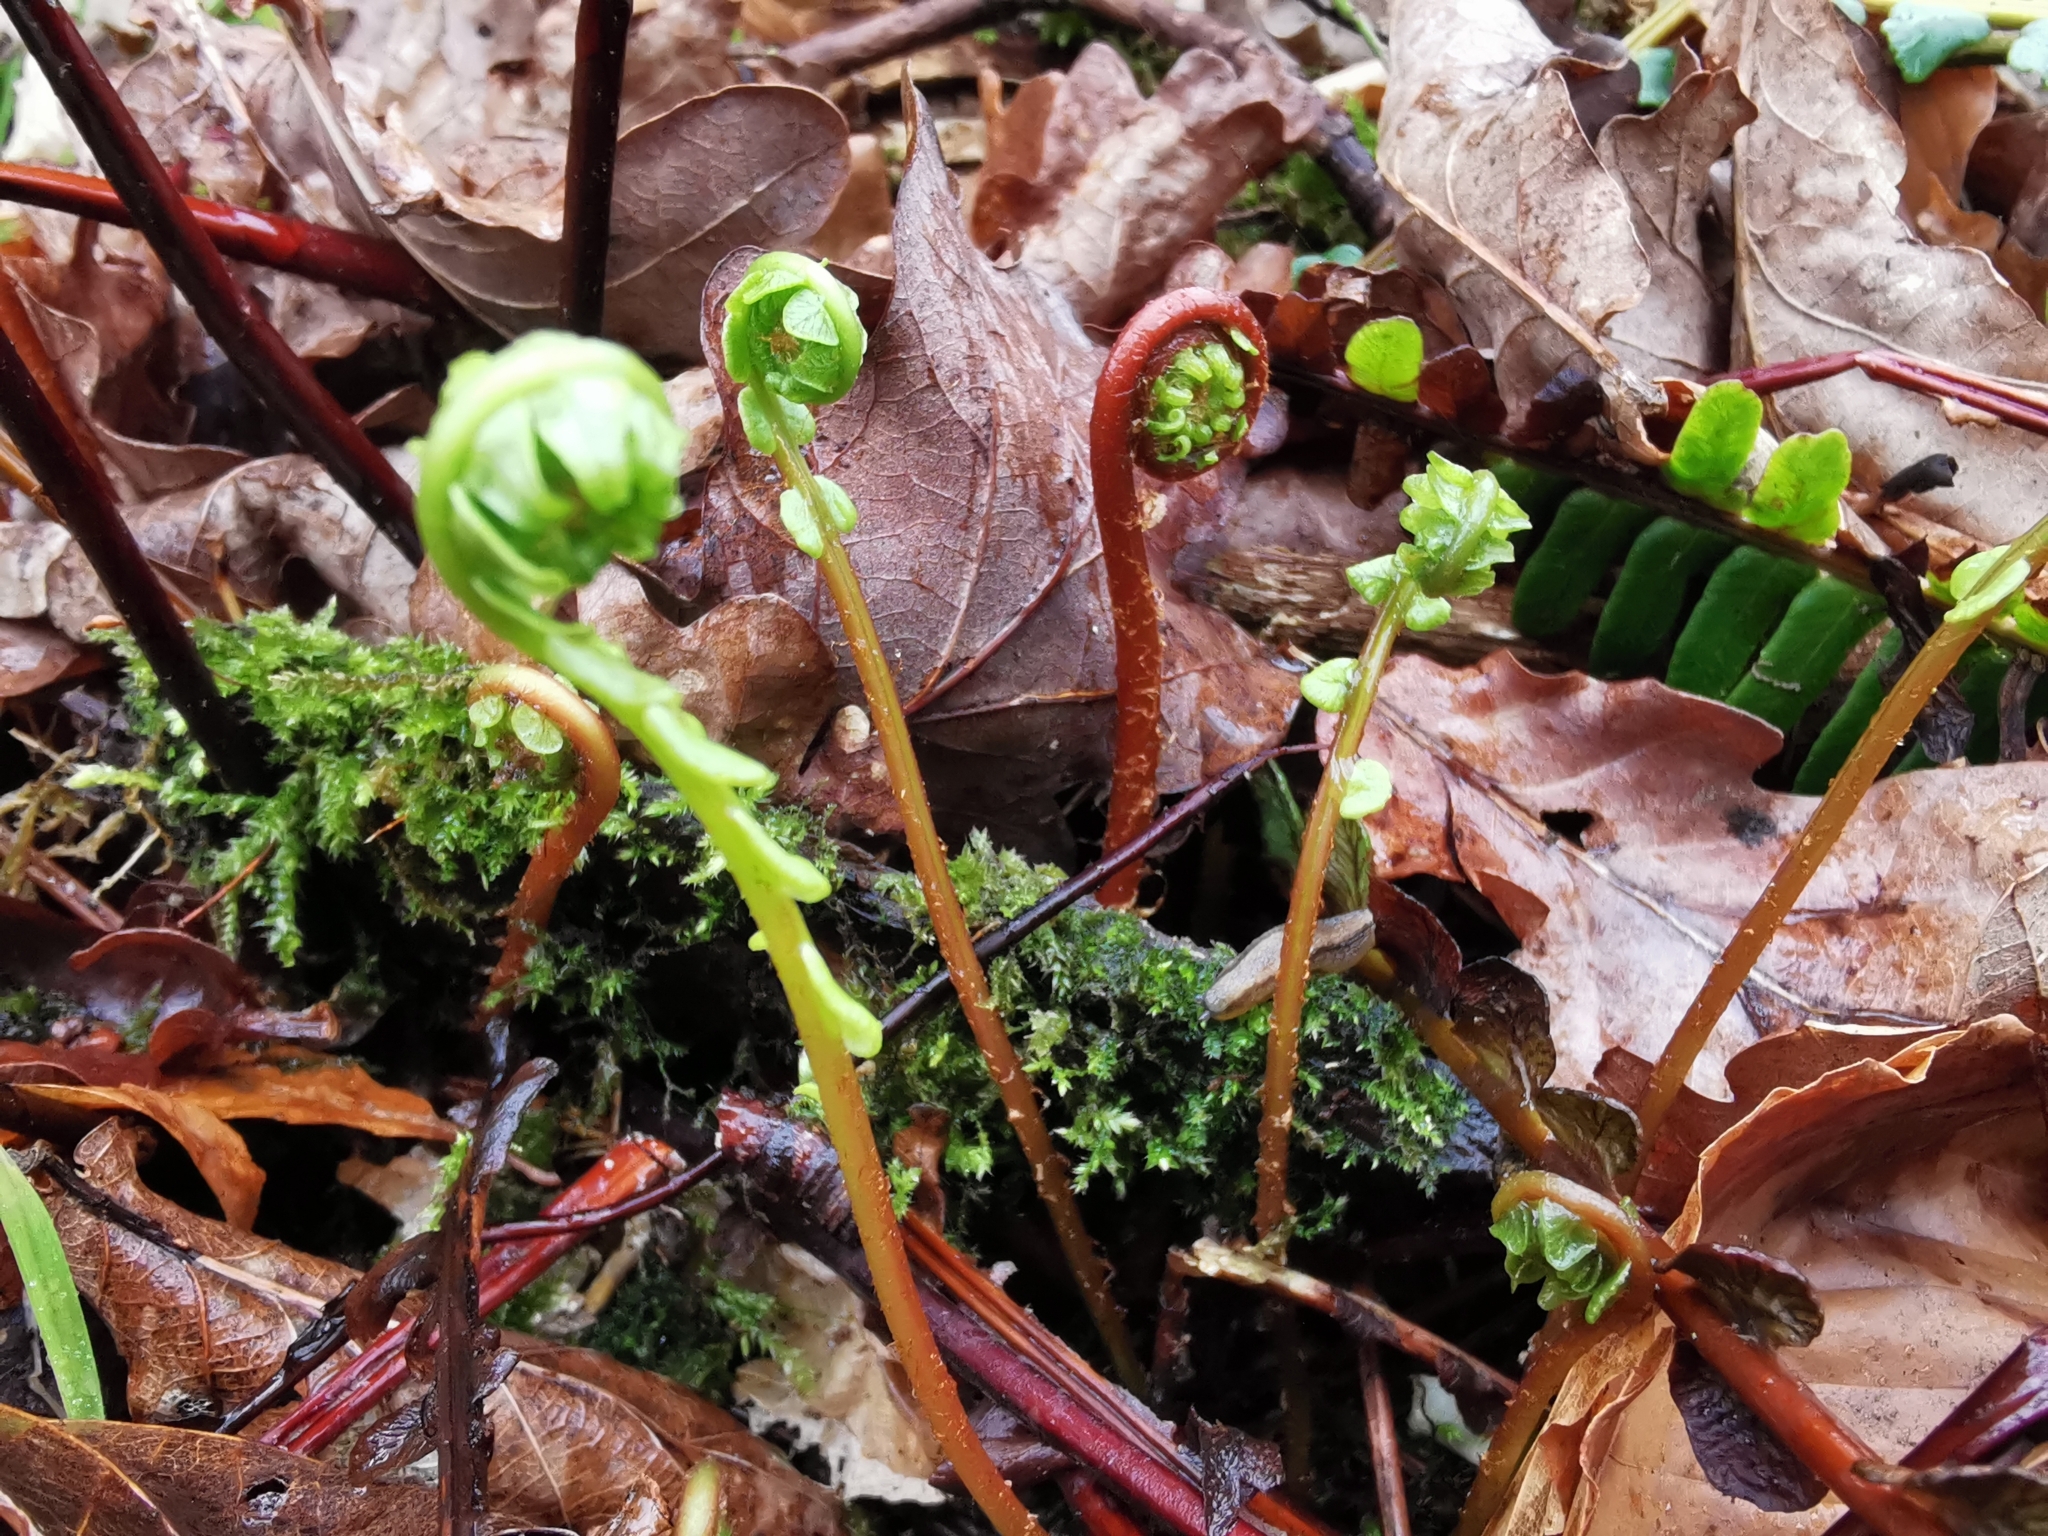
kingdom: Plantae
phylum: Tracheophyta
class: Polypodiopsida
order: Polypodiales
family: Blechnaceae
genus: Struthiopteris
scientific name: Struthiopteris spicant
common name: Deer fern
